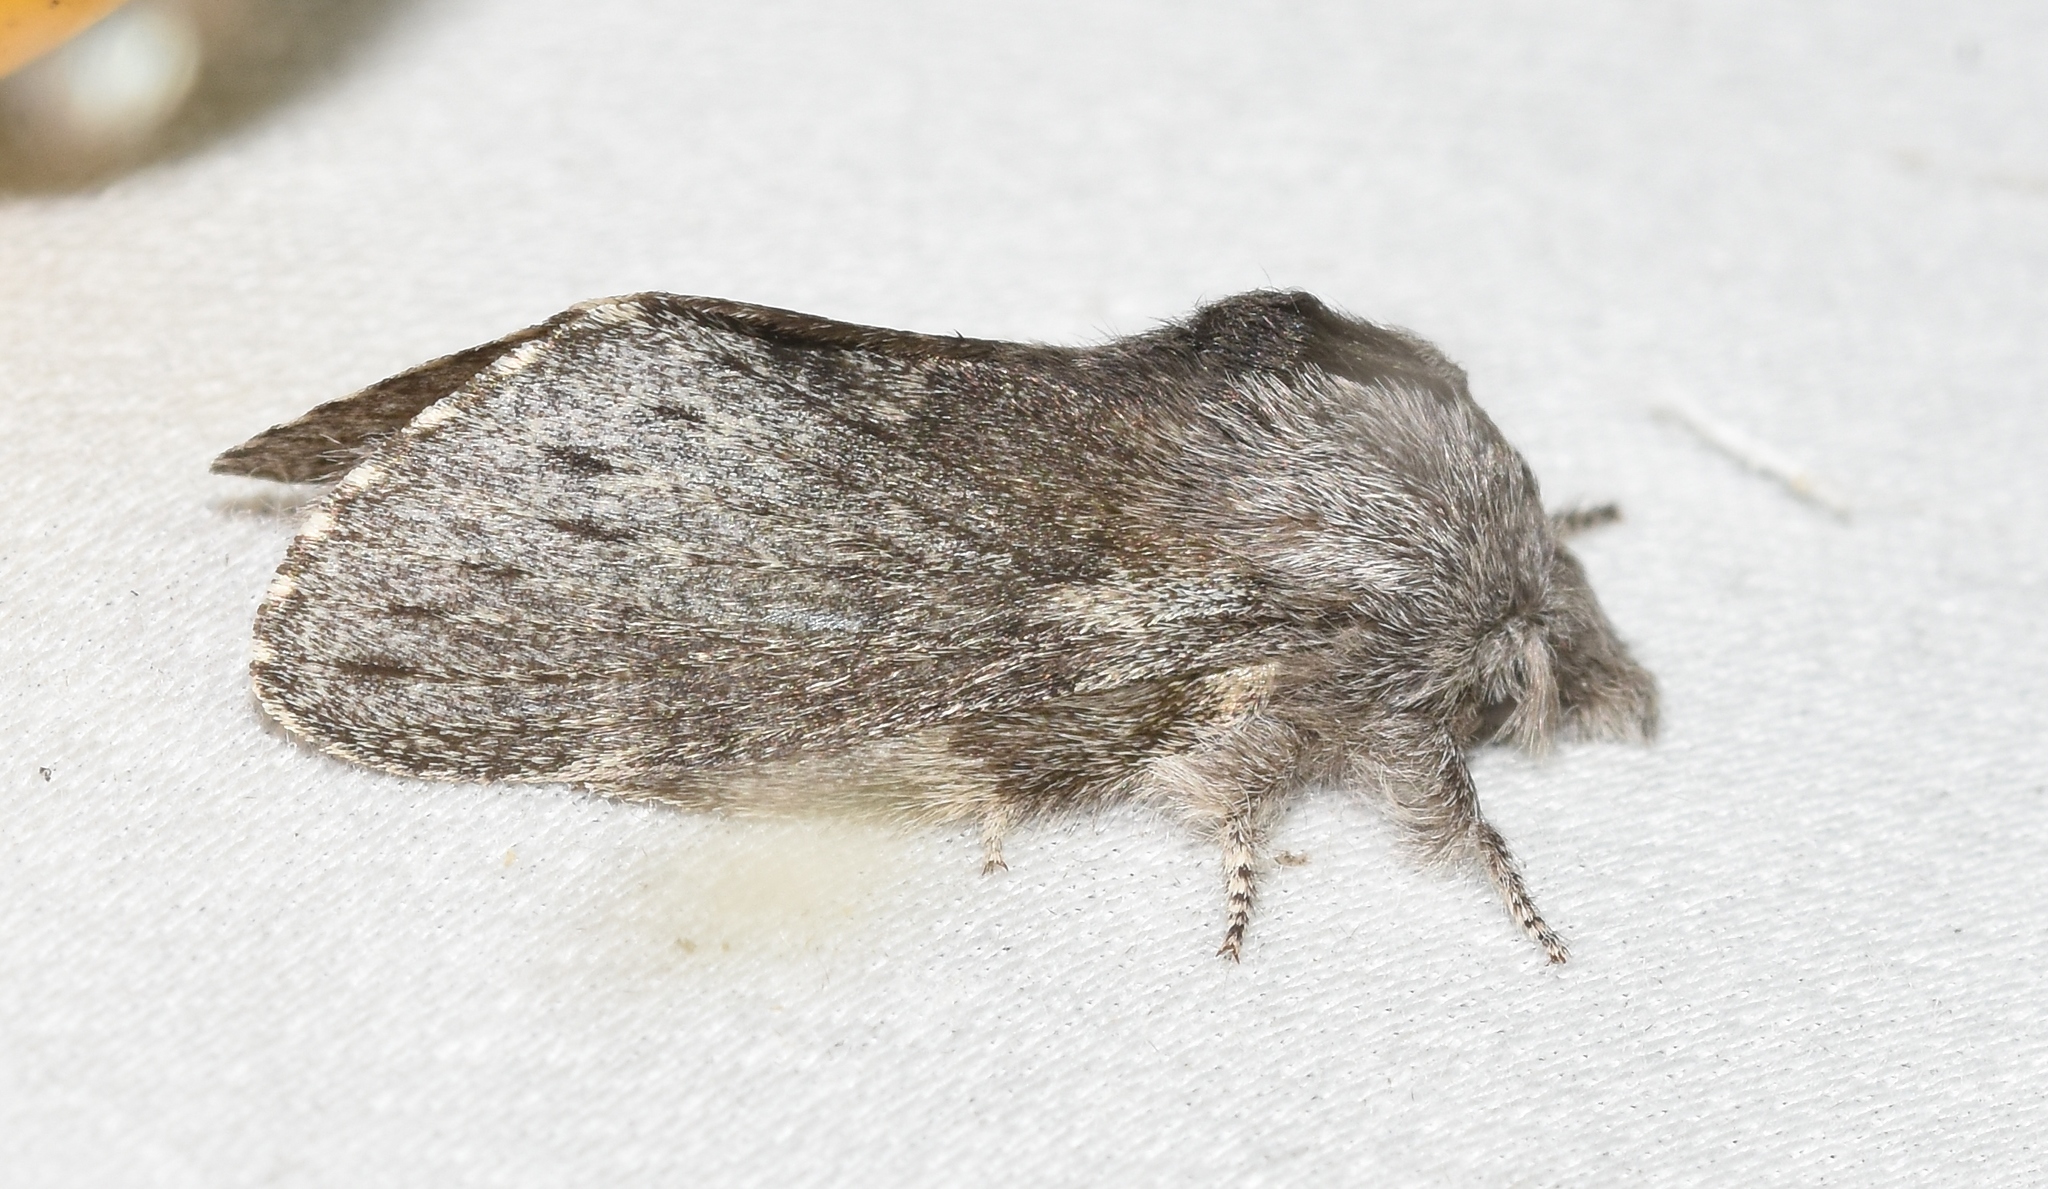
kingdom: Animalia
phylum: Arthropoda
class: Insecta
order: Lepidoptera
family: Lasiocampidae
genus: Heteropacha
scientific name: Heteropacha rileyana
